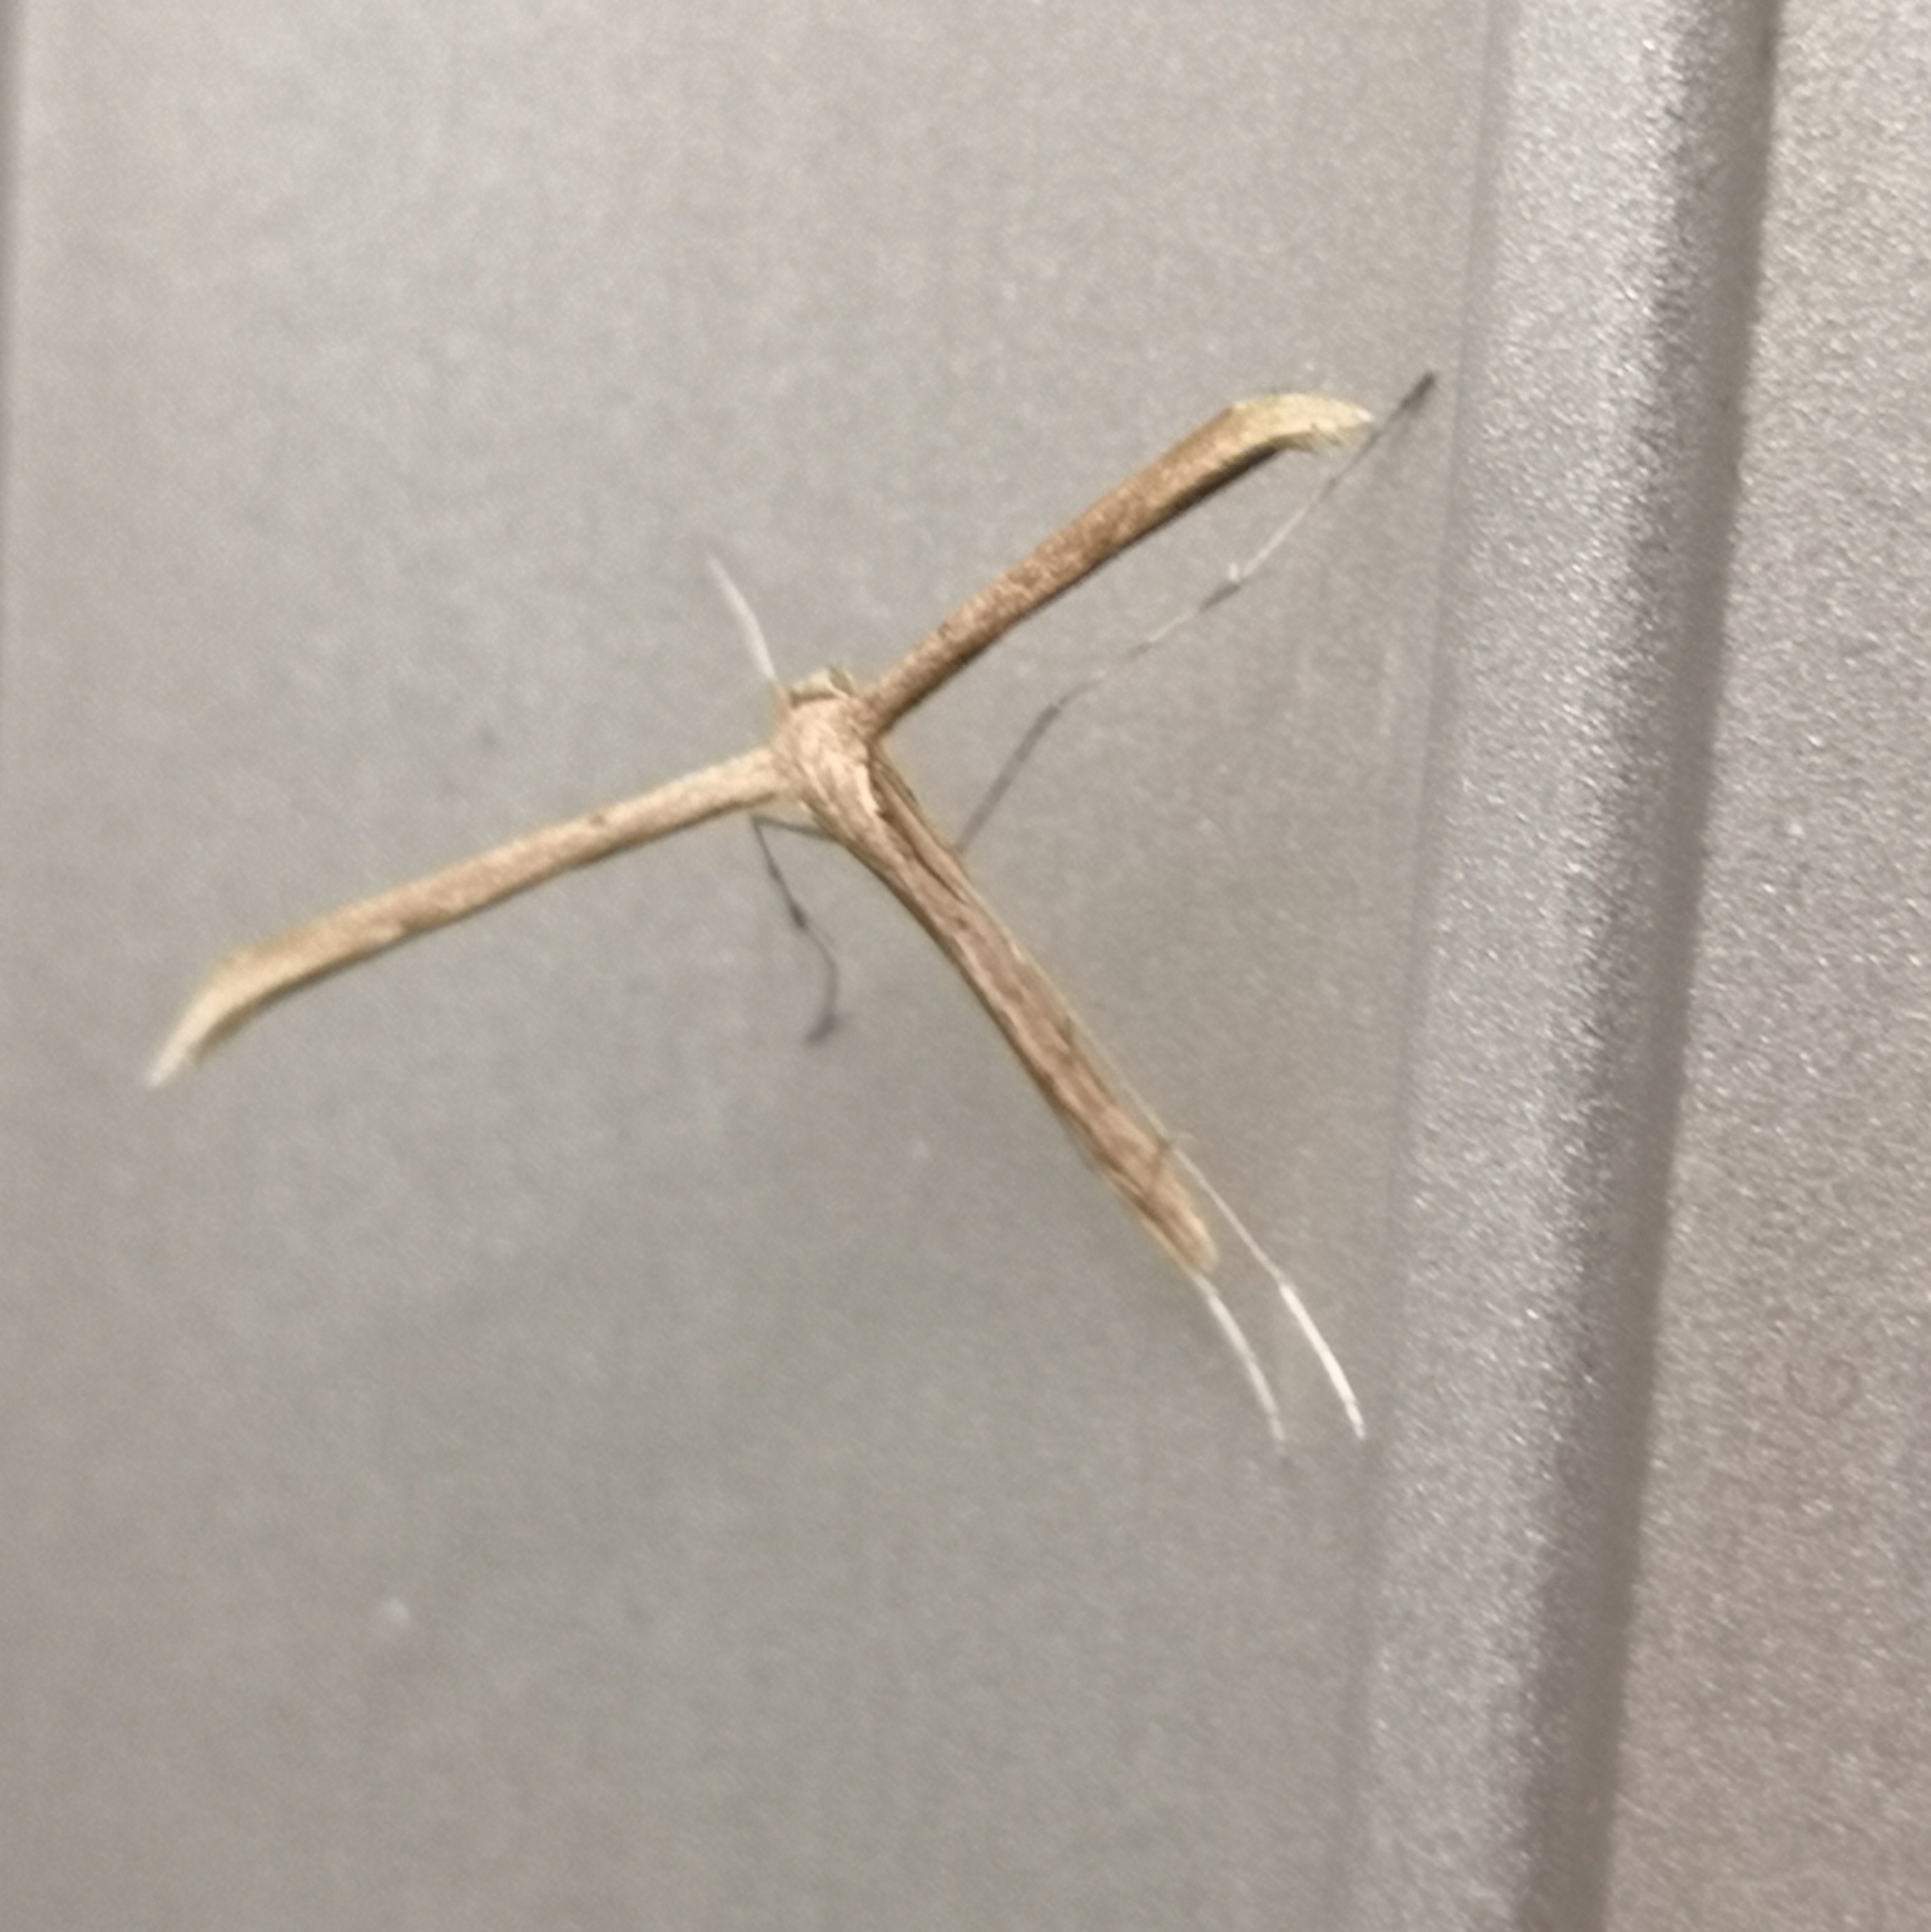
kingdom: Animalia
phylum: Arthropoda
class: Insecta
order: Lepidoptera
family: Pterophoridae
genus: Emmelina
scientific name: Emmelina monodactyla
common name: Common plume
